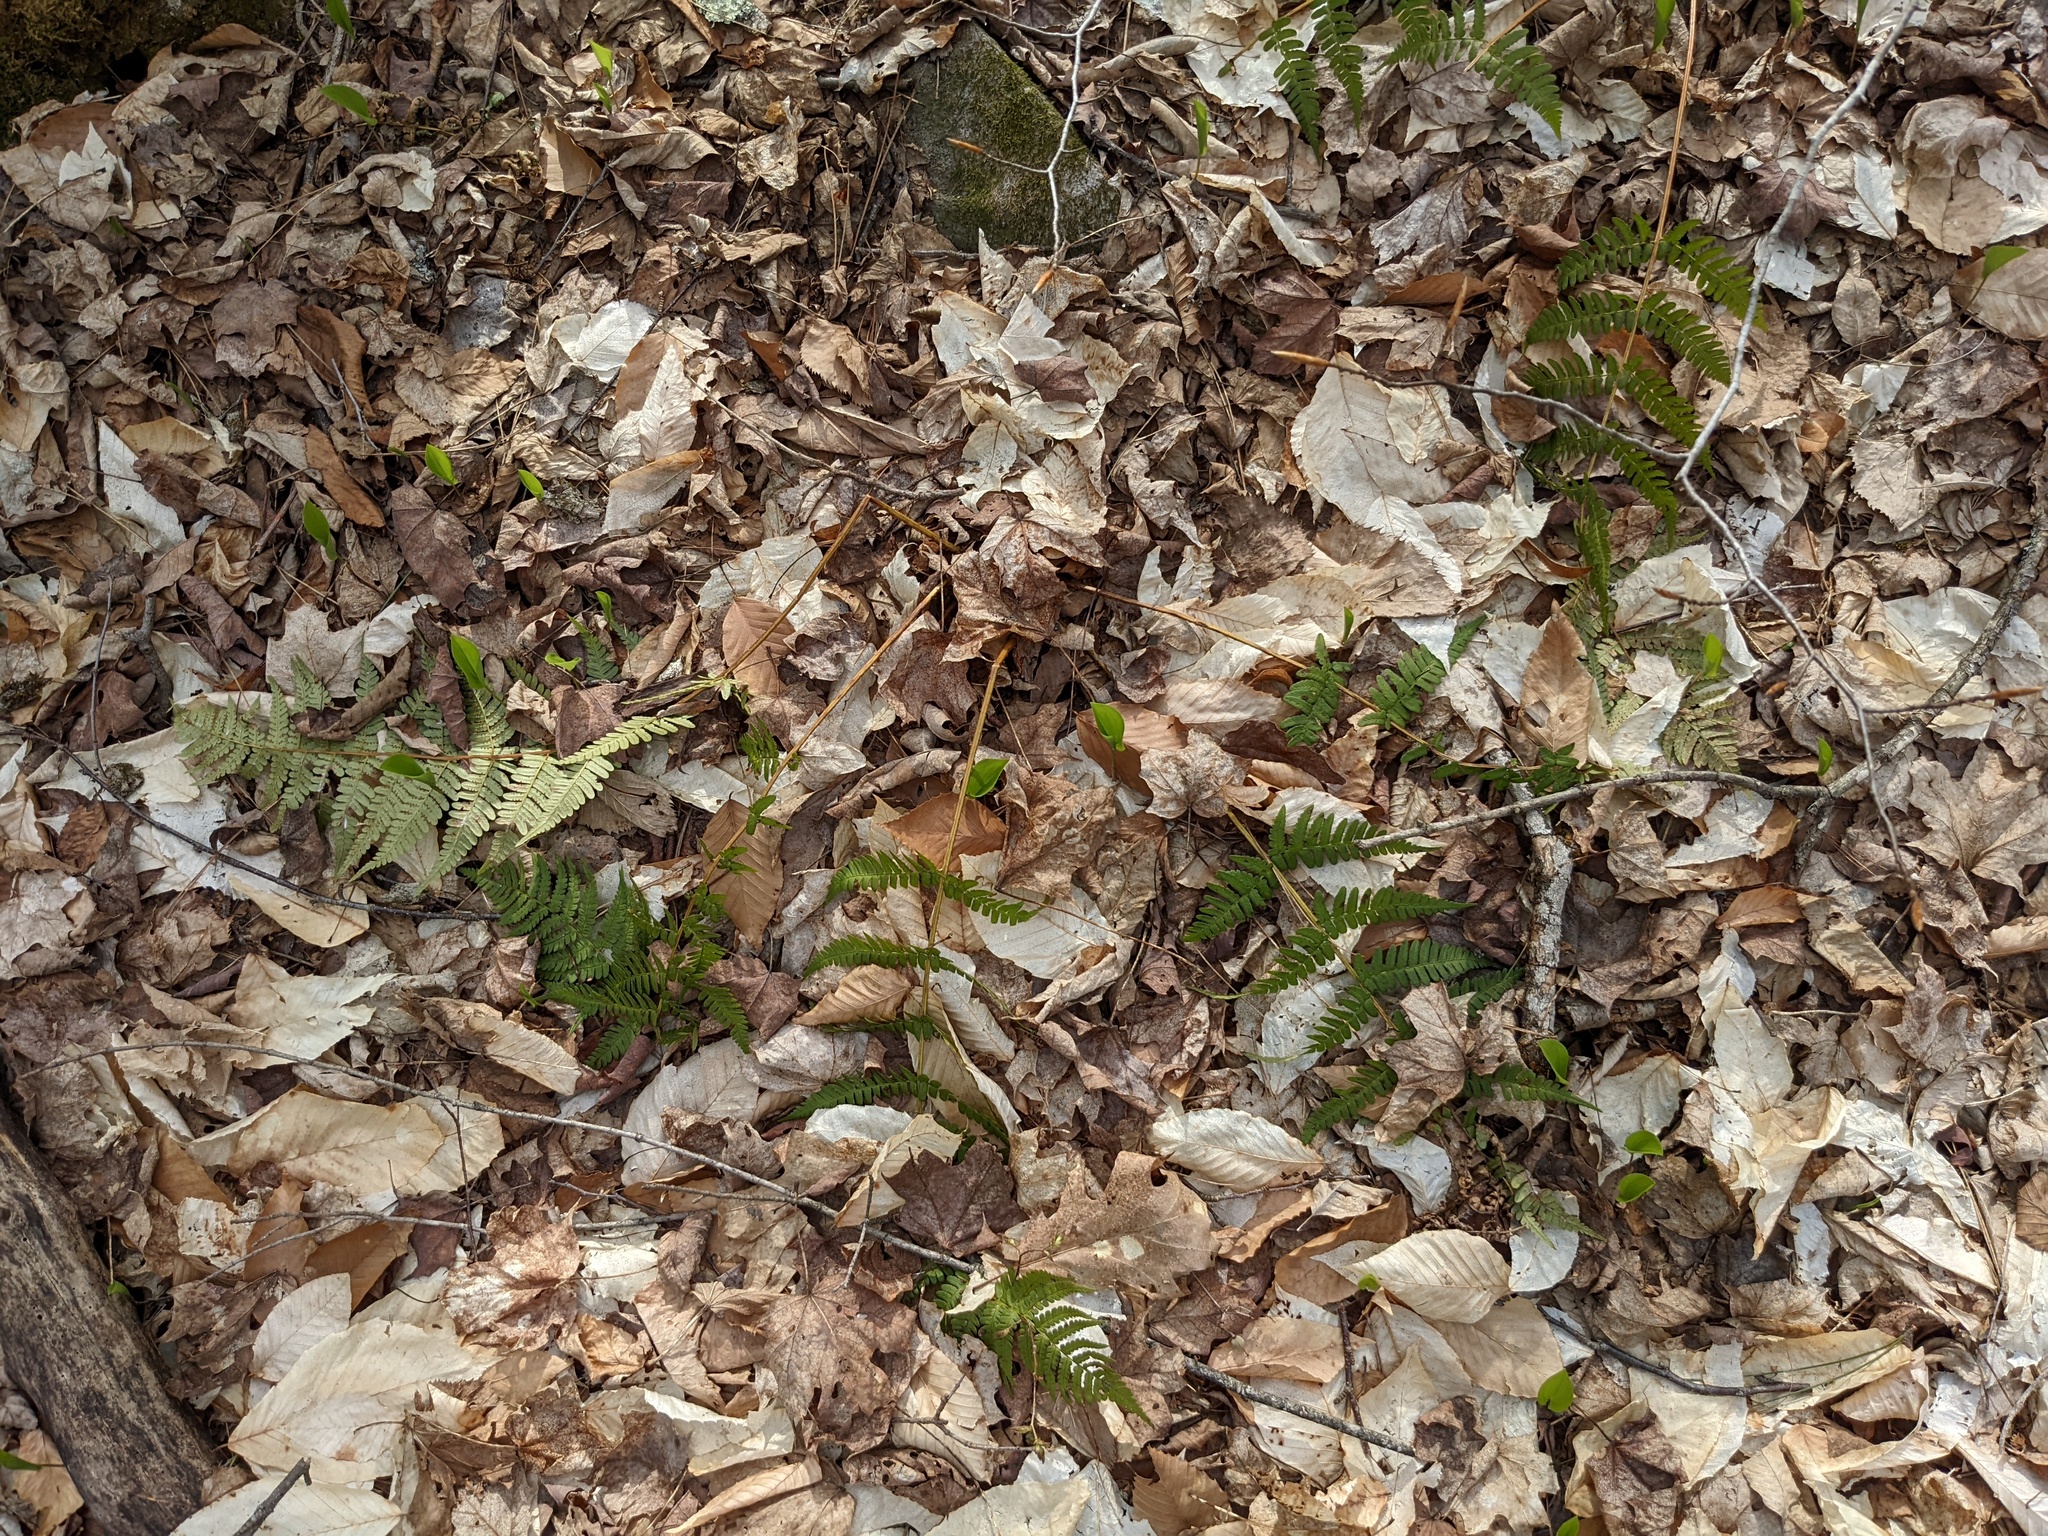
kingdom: Plantae
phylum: Tracheophyta
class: Polypodiopsida
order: Polypodiales
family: Dryopteridaceae
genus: Dryopteris
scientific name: Dryopteris marginalis
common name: Marginal wood fern
